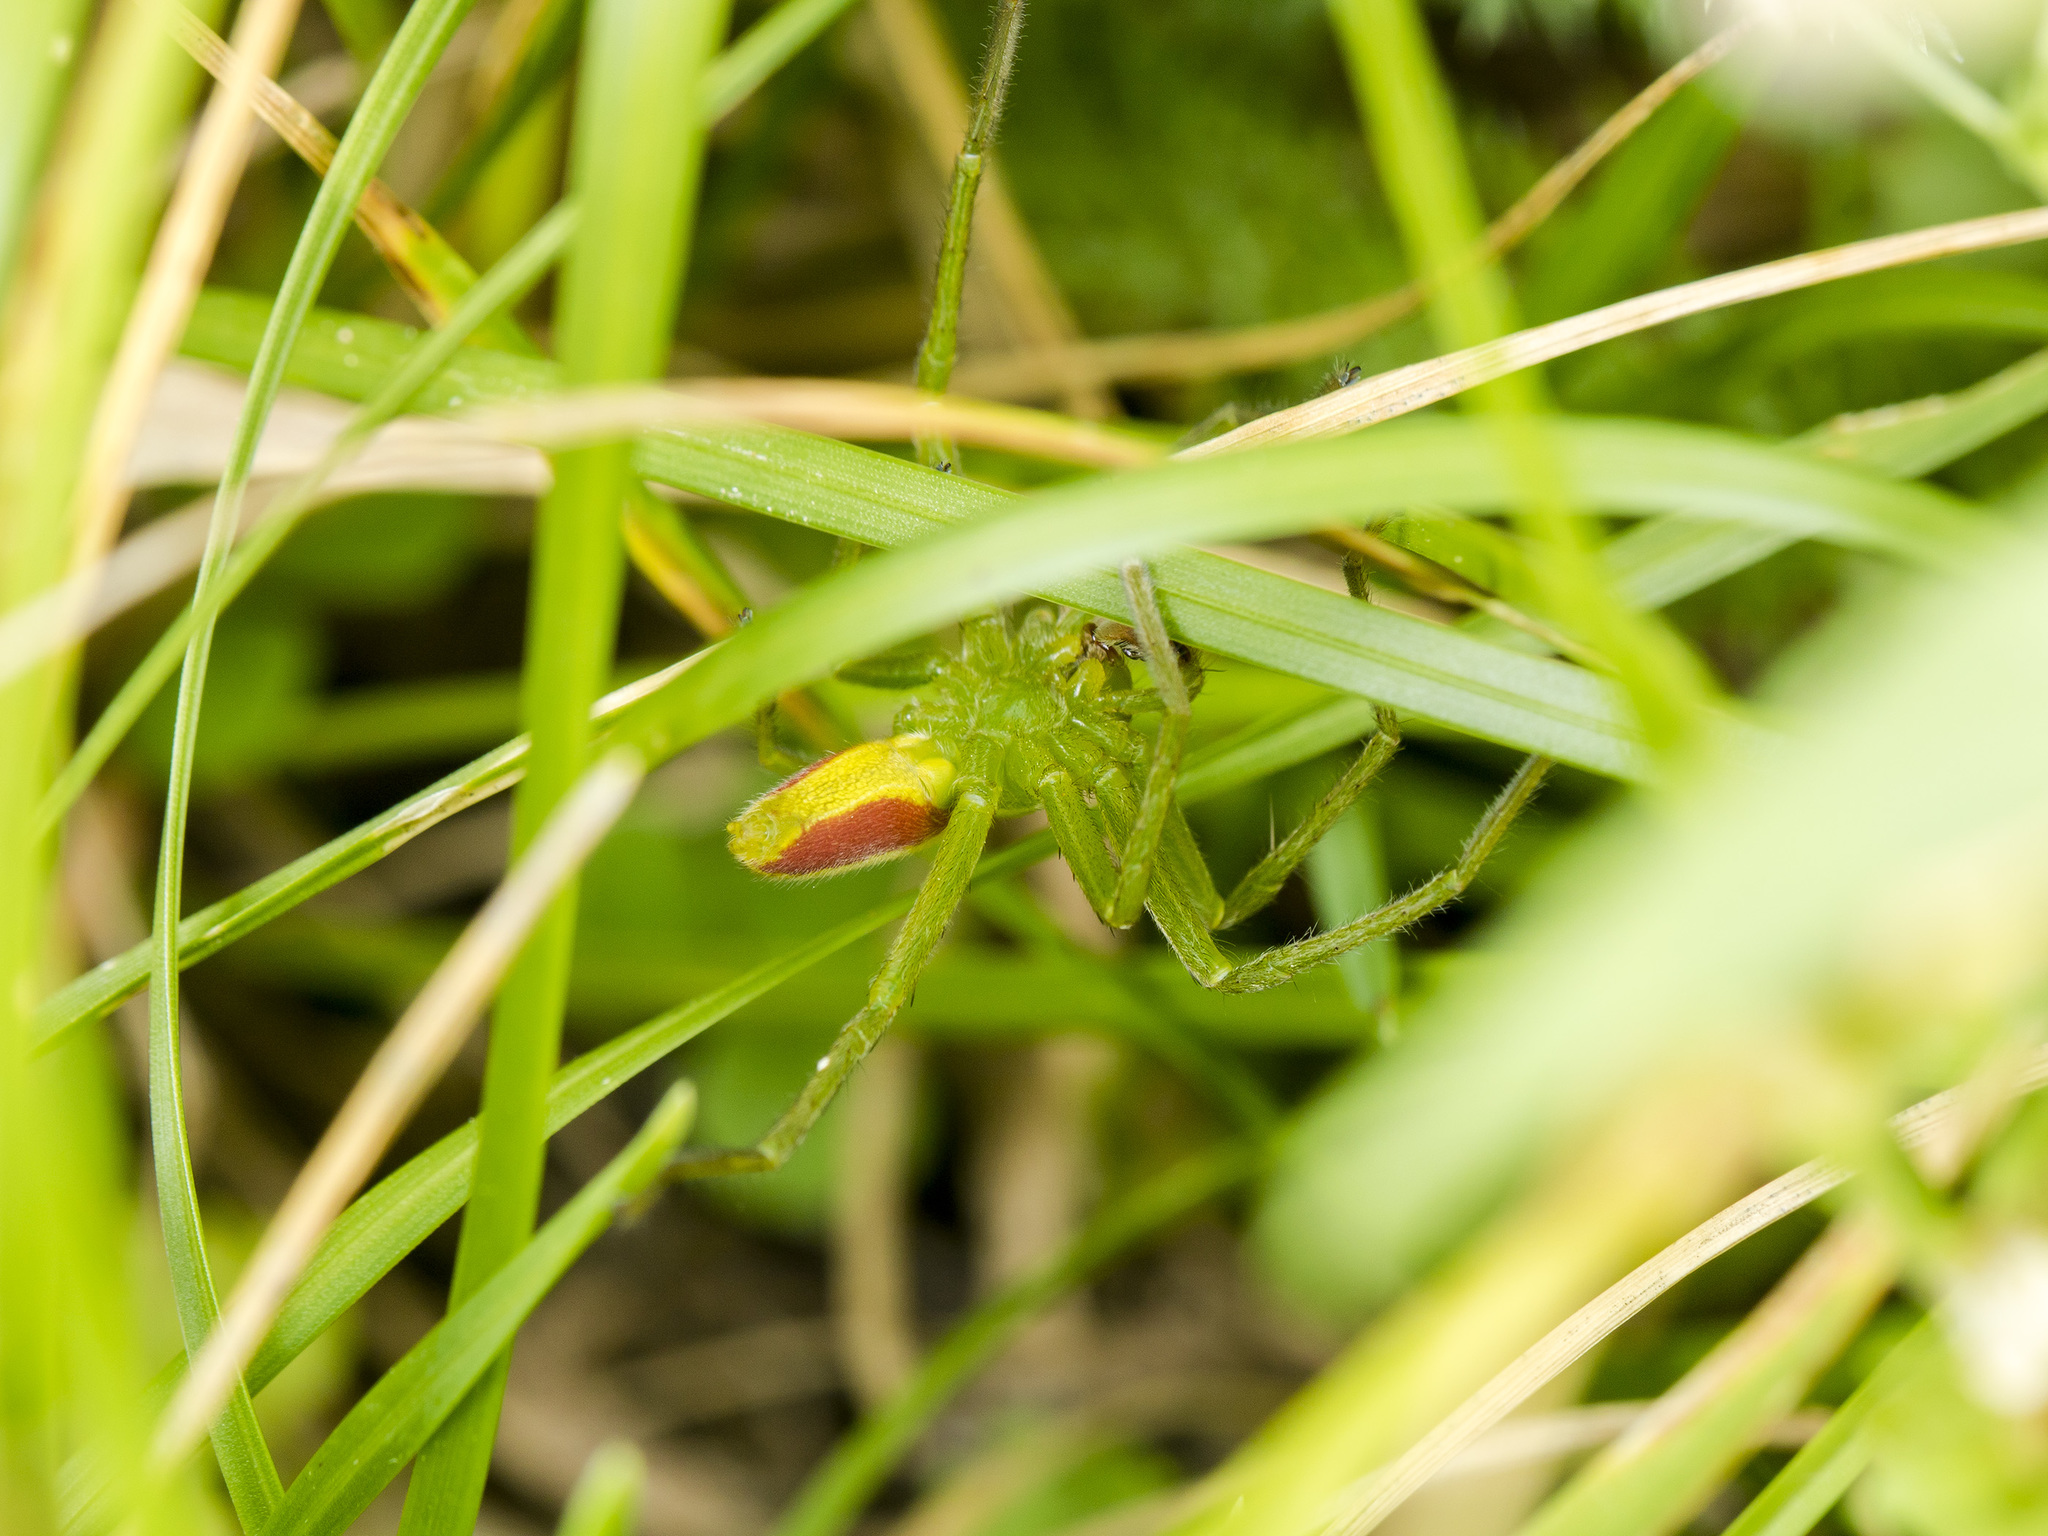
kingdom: Animalia
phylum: Arthropoda
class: Arachnida
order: Araneae
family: Sparassidae
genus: Micrommata
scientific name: Micrommata virescens
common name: Green spider
